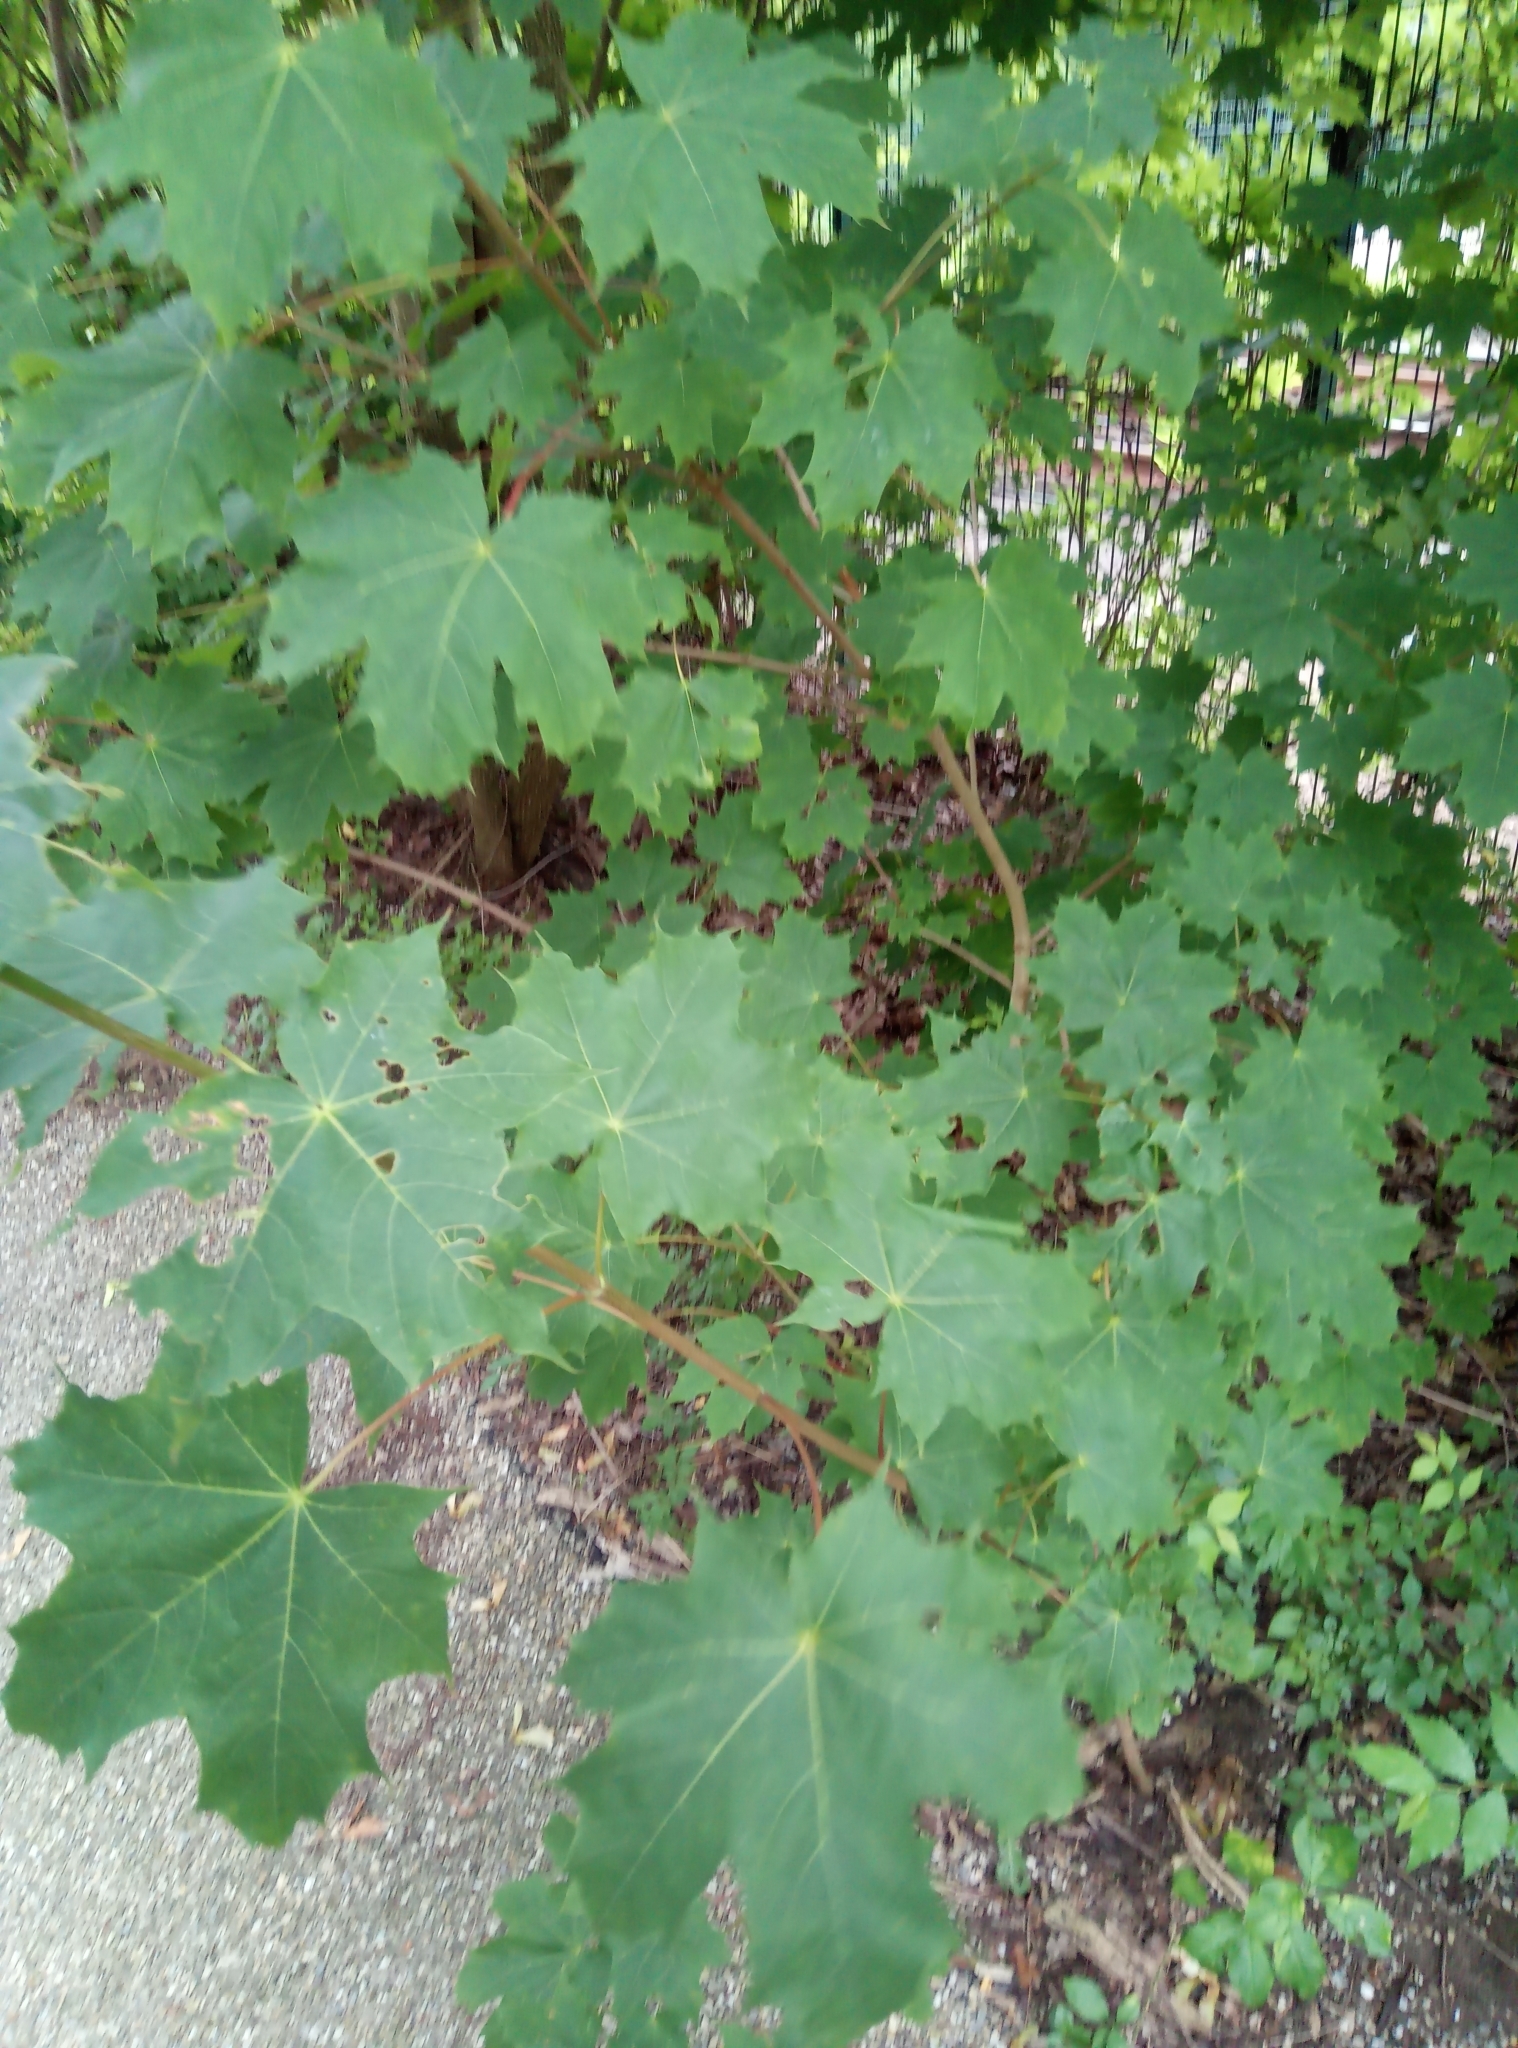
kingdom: Plantae
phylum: Tracheophyta
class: Magnoliopsida
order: Sapindales
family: Sapindaceae
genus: Acer
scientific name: Acer platanoides
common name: Norway maple
